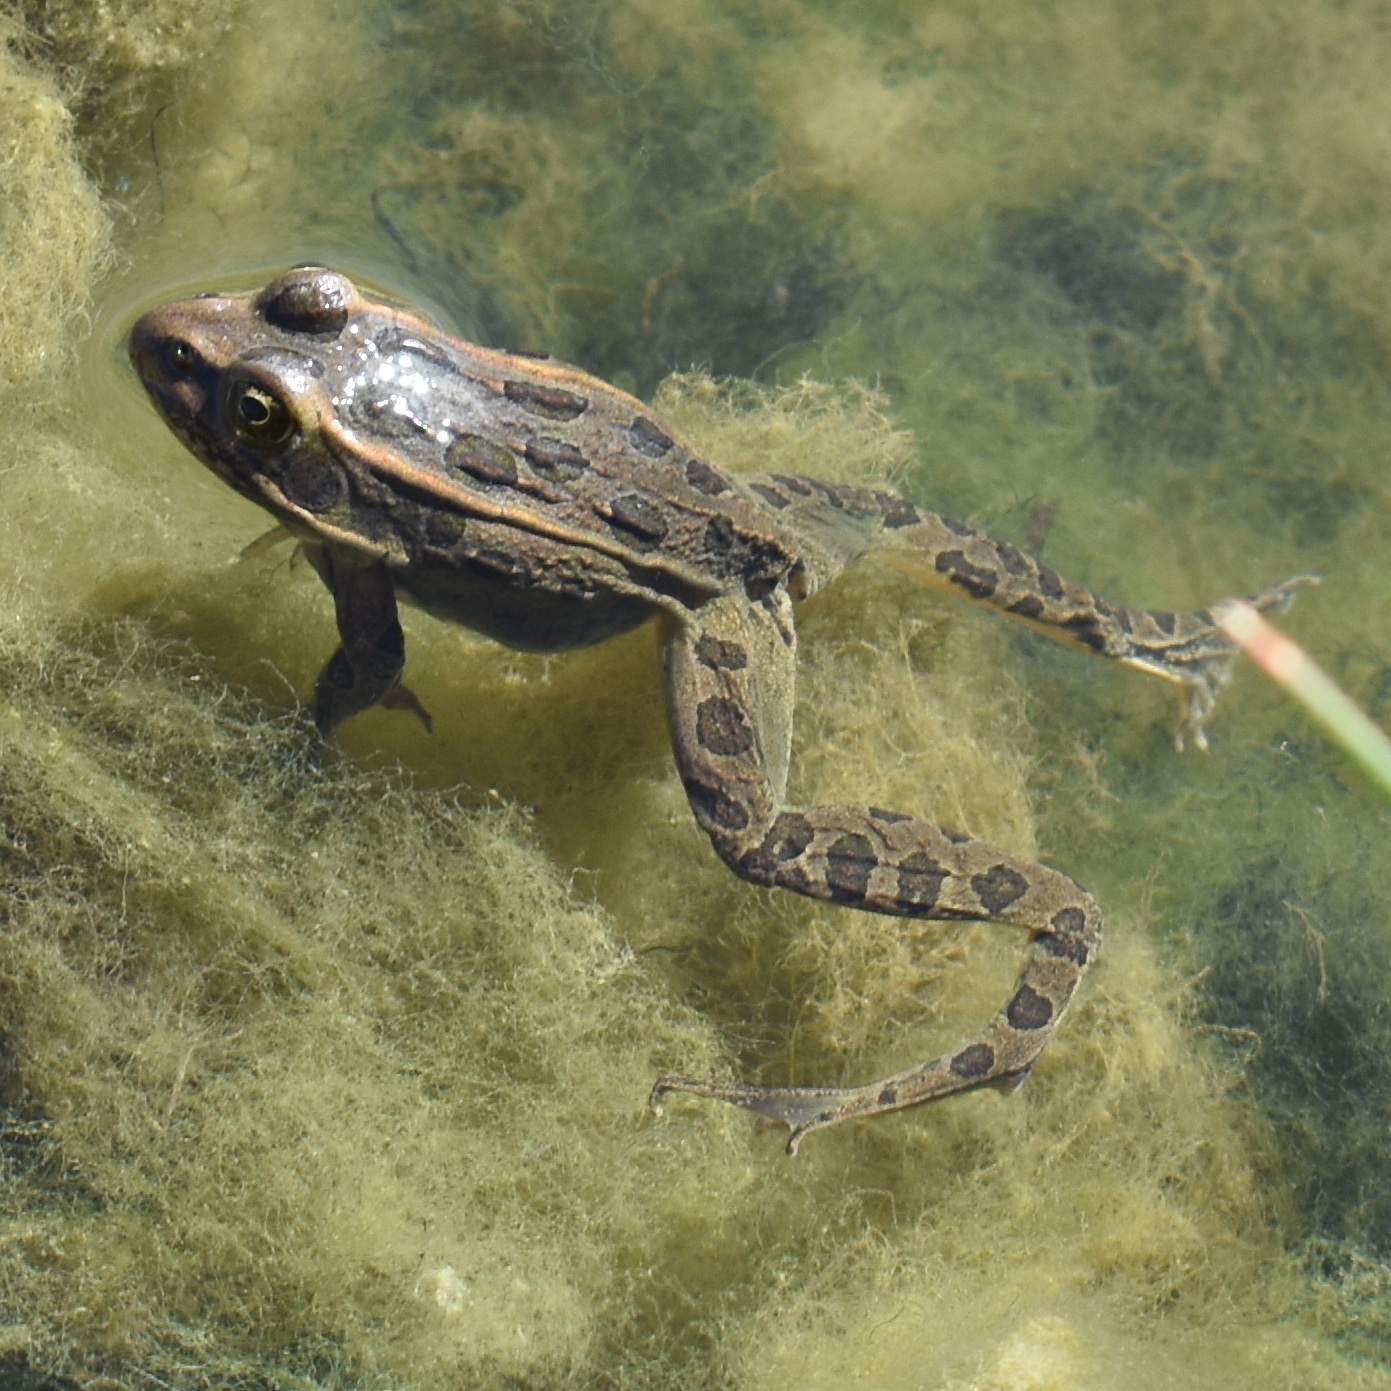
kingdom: Animalia
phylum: Chordata
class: Amphibia
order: Anura
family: Ranidae
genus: Lithobates
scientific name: Lithobates pipiens
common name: Northern leopard frog
